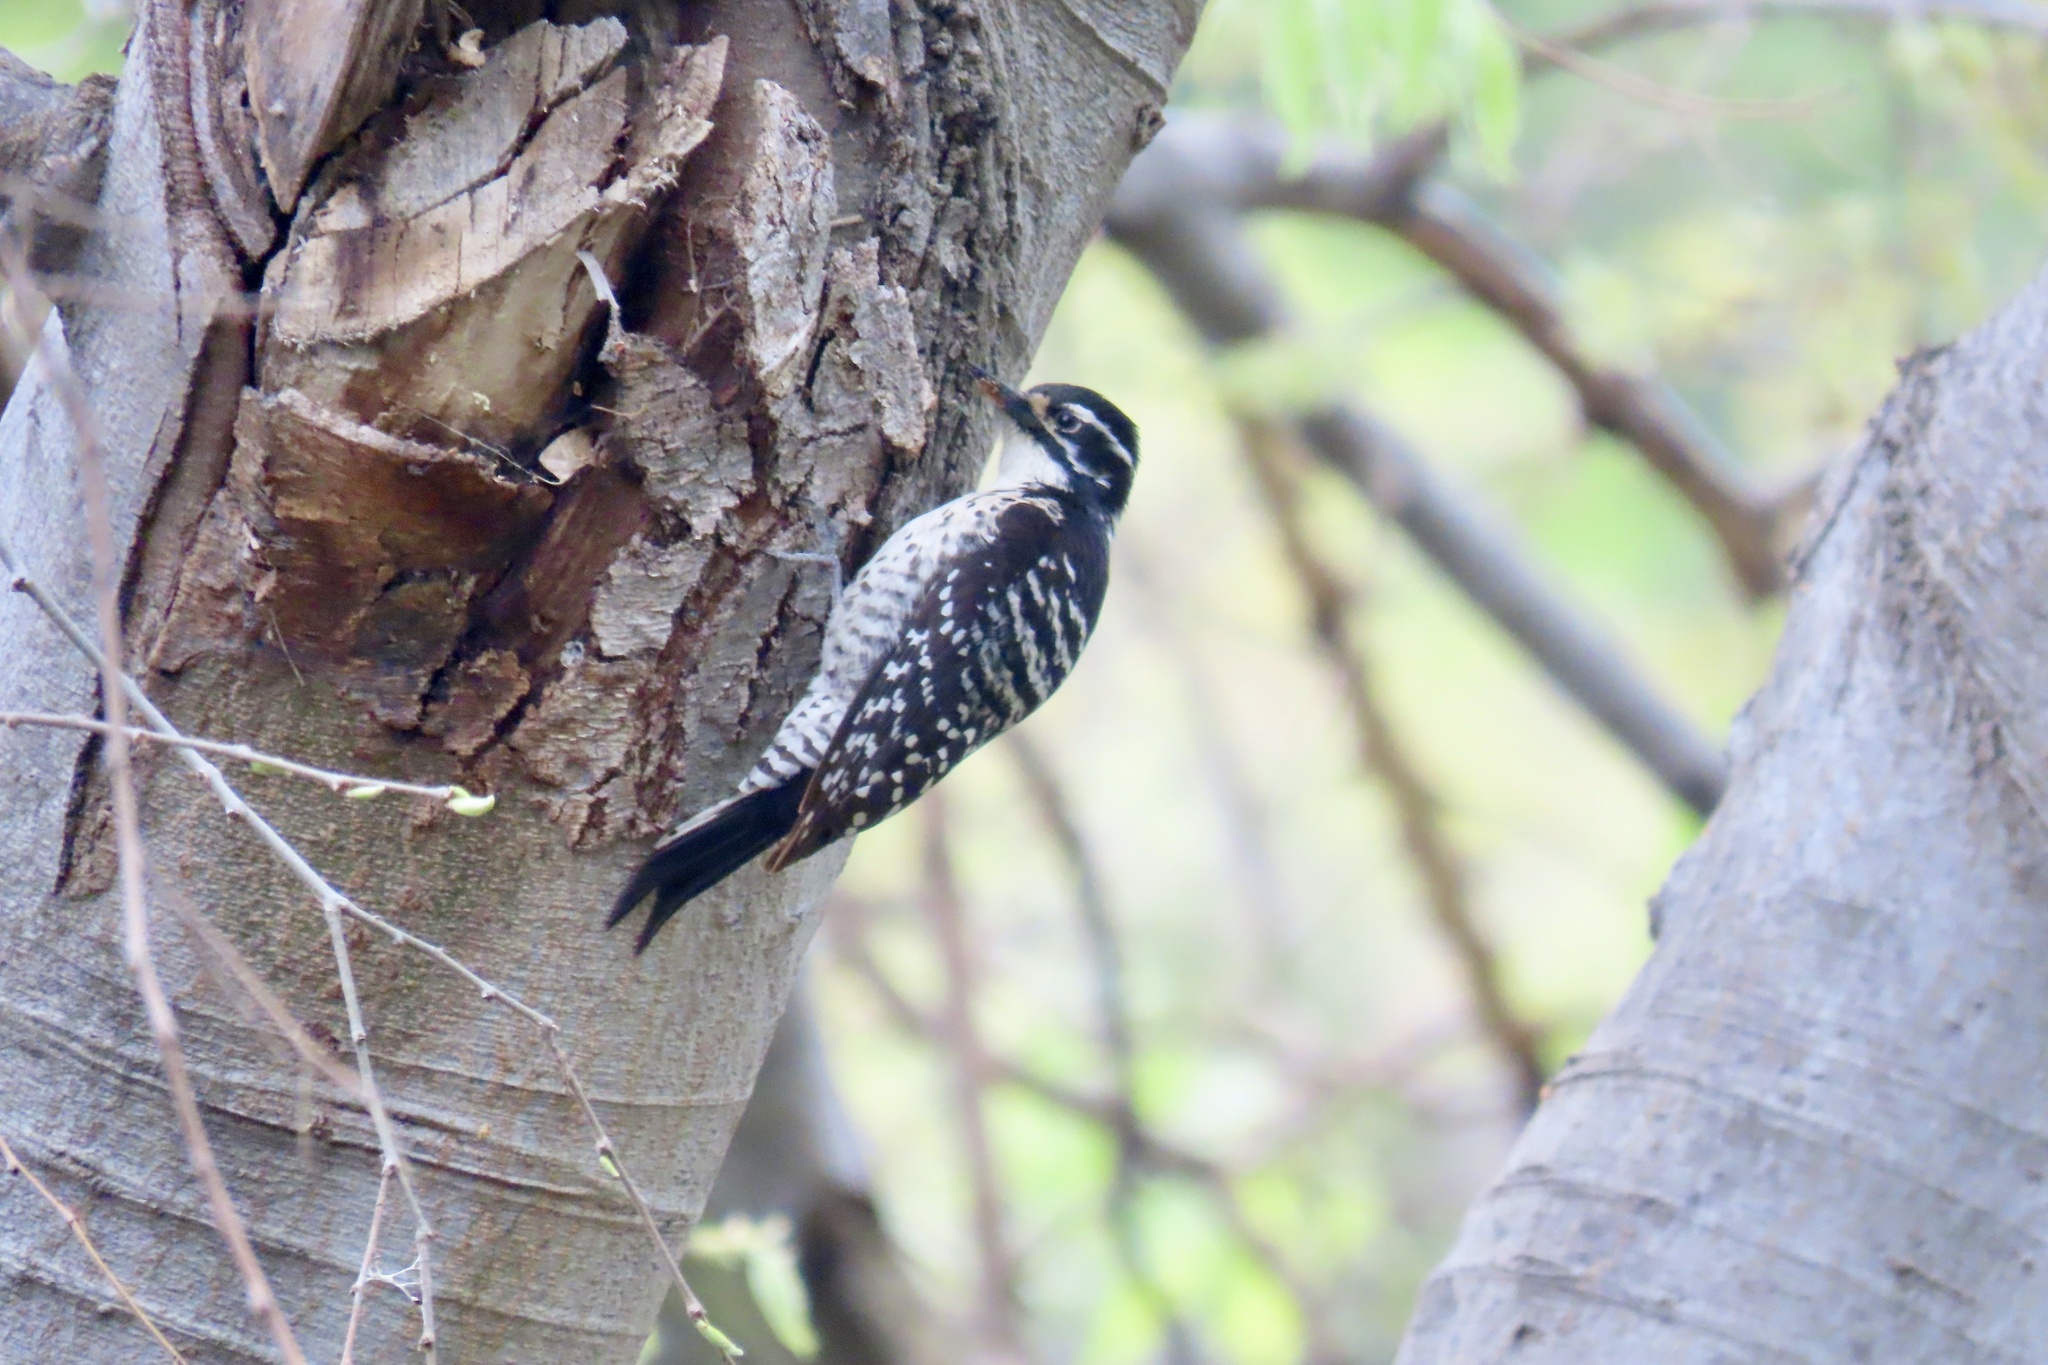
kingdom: Animalia
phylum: Chordata
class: Aves
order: Piciformes
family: Picidae
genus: Dryobates
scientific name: Dryobates nuttallii
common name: Nuttall's woodpecker
